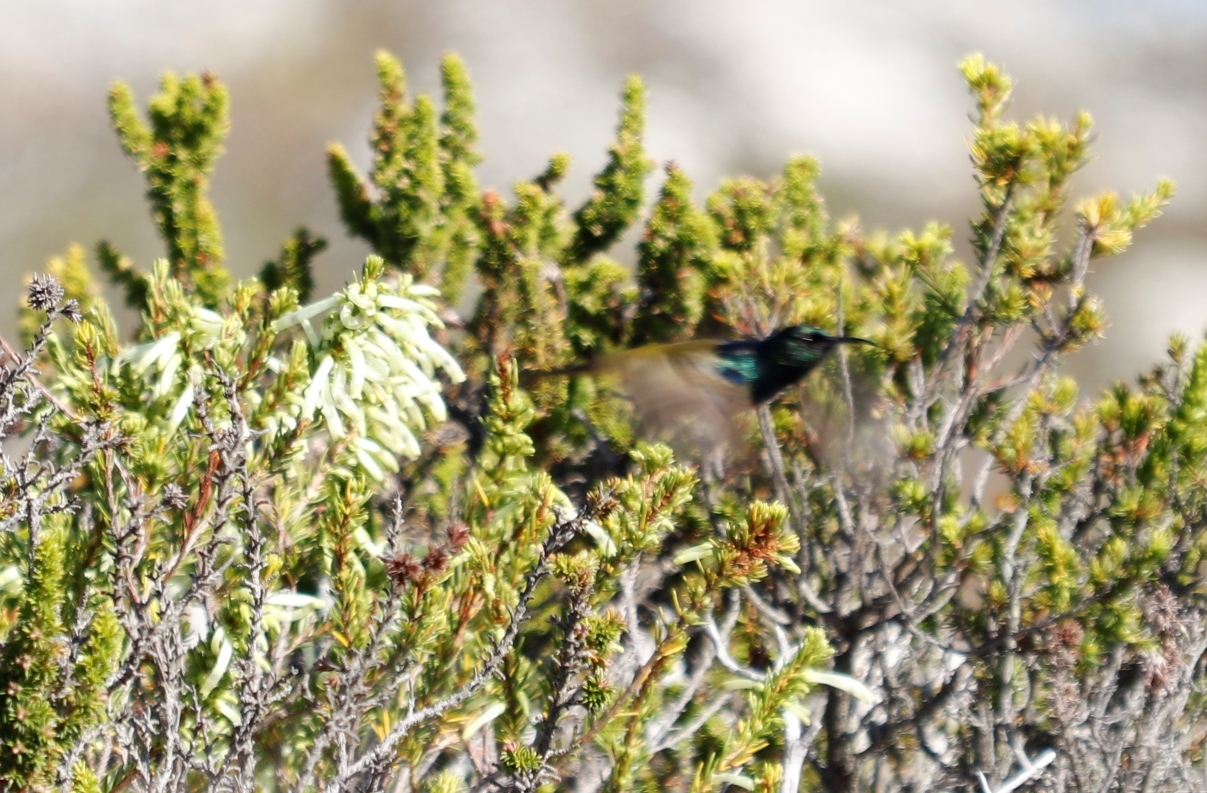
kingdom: Plantae
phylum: Tracheophyta
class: Magnoliopsida
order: Ericales
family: Ericaceae
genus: Erica
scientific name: Erica mammosa
